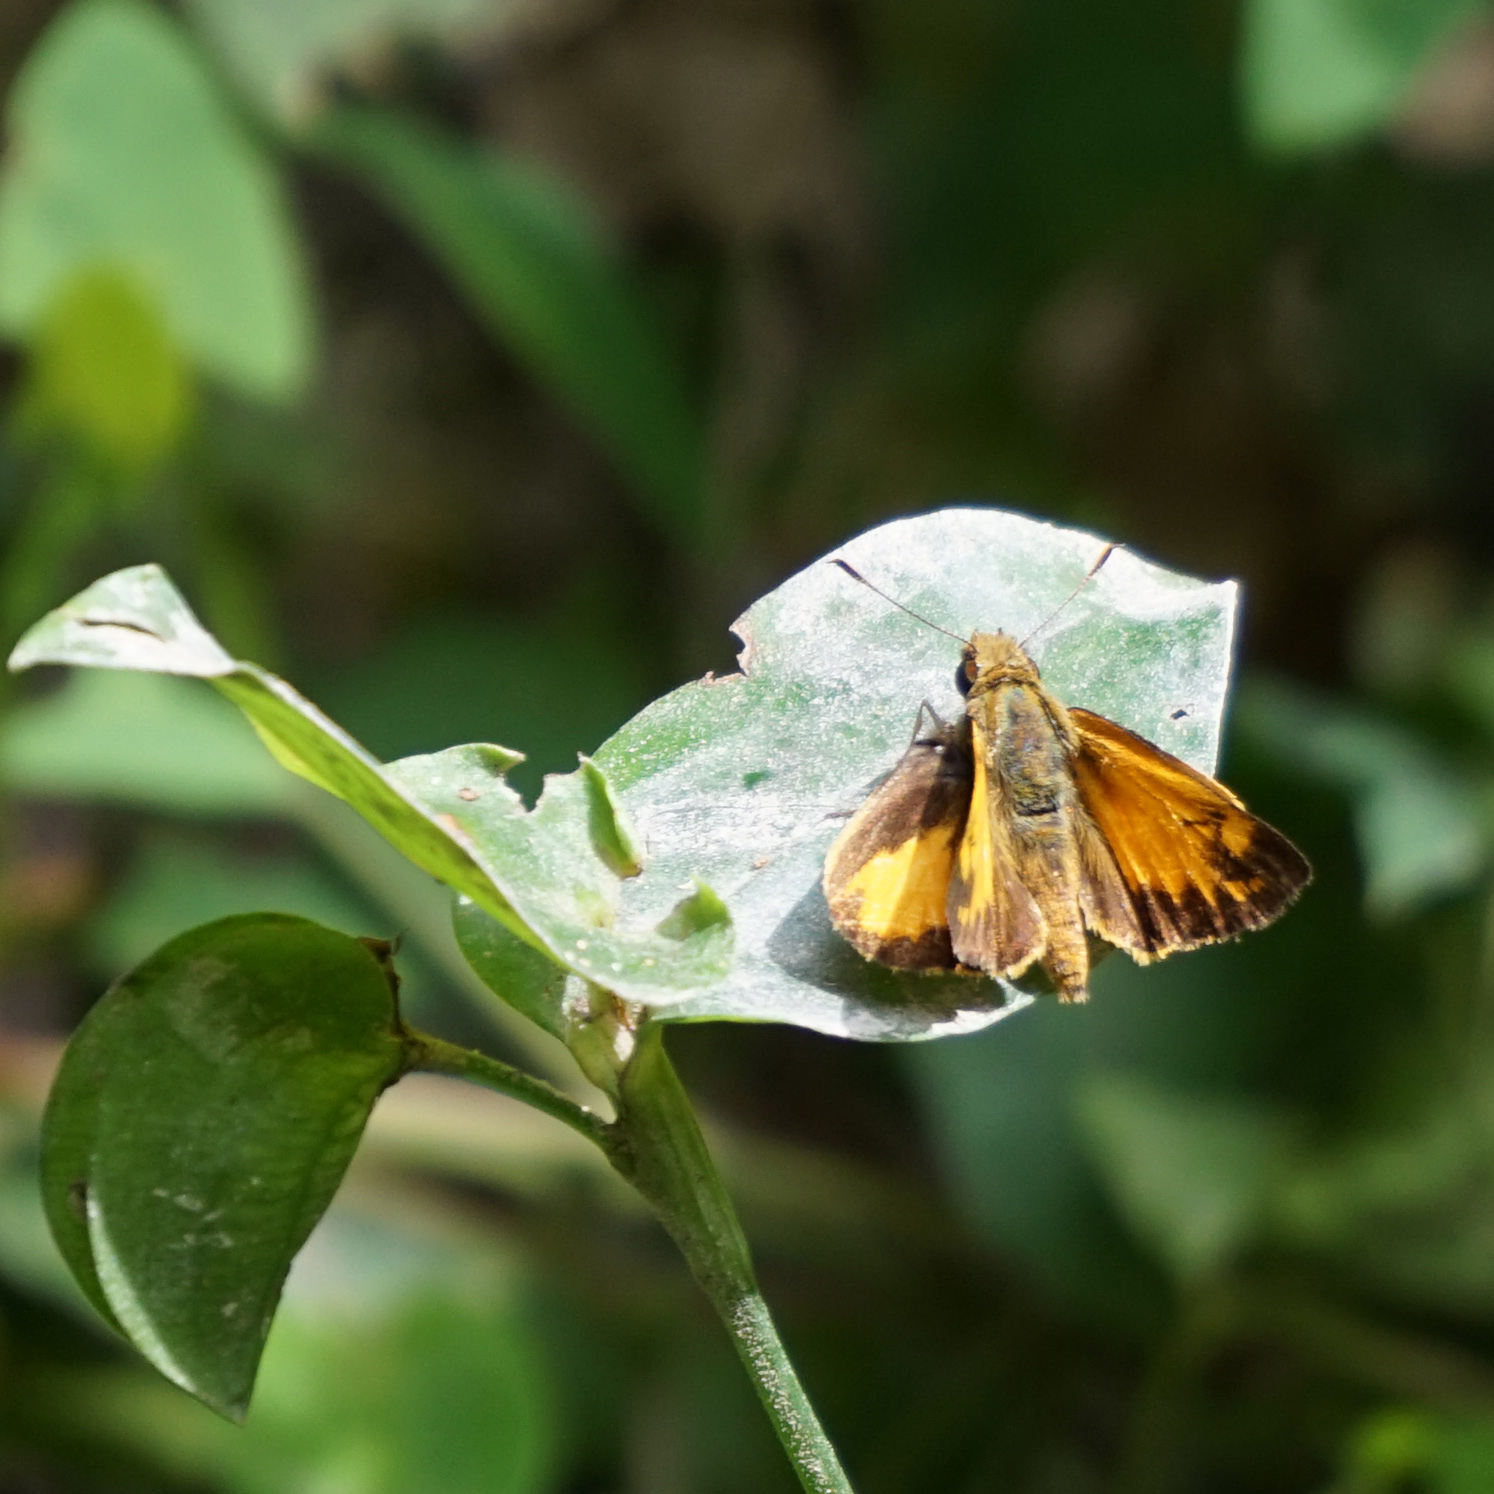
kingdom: Animalia
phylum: Arthropoda
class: Insecta
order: Lepidoptera
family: Hesperiidae
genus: Lon
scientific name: Lon zabulon
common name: Zabulon skipper
